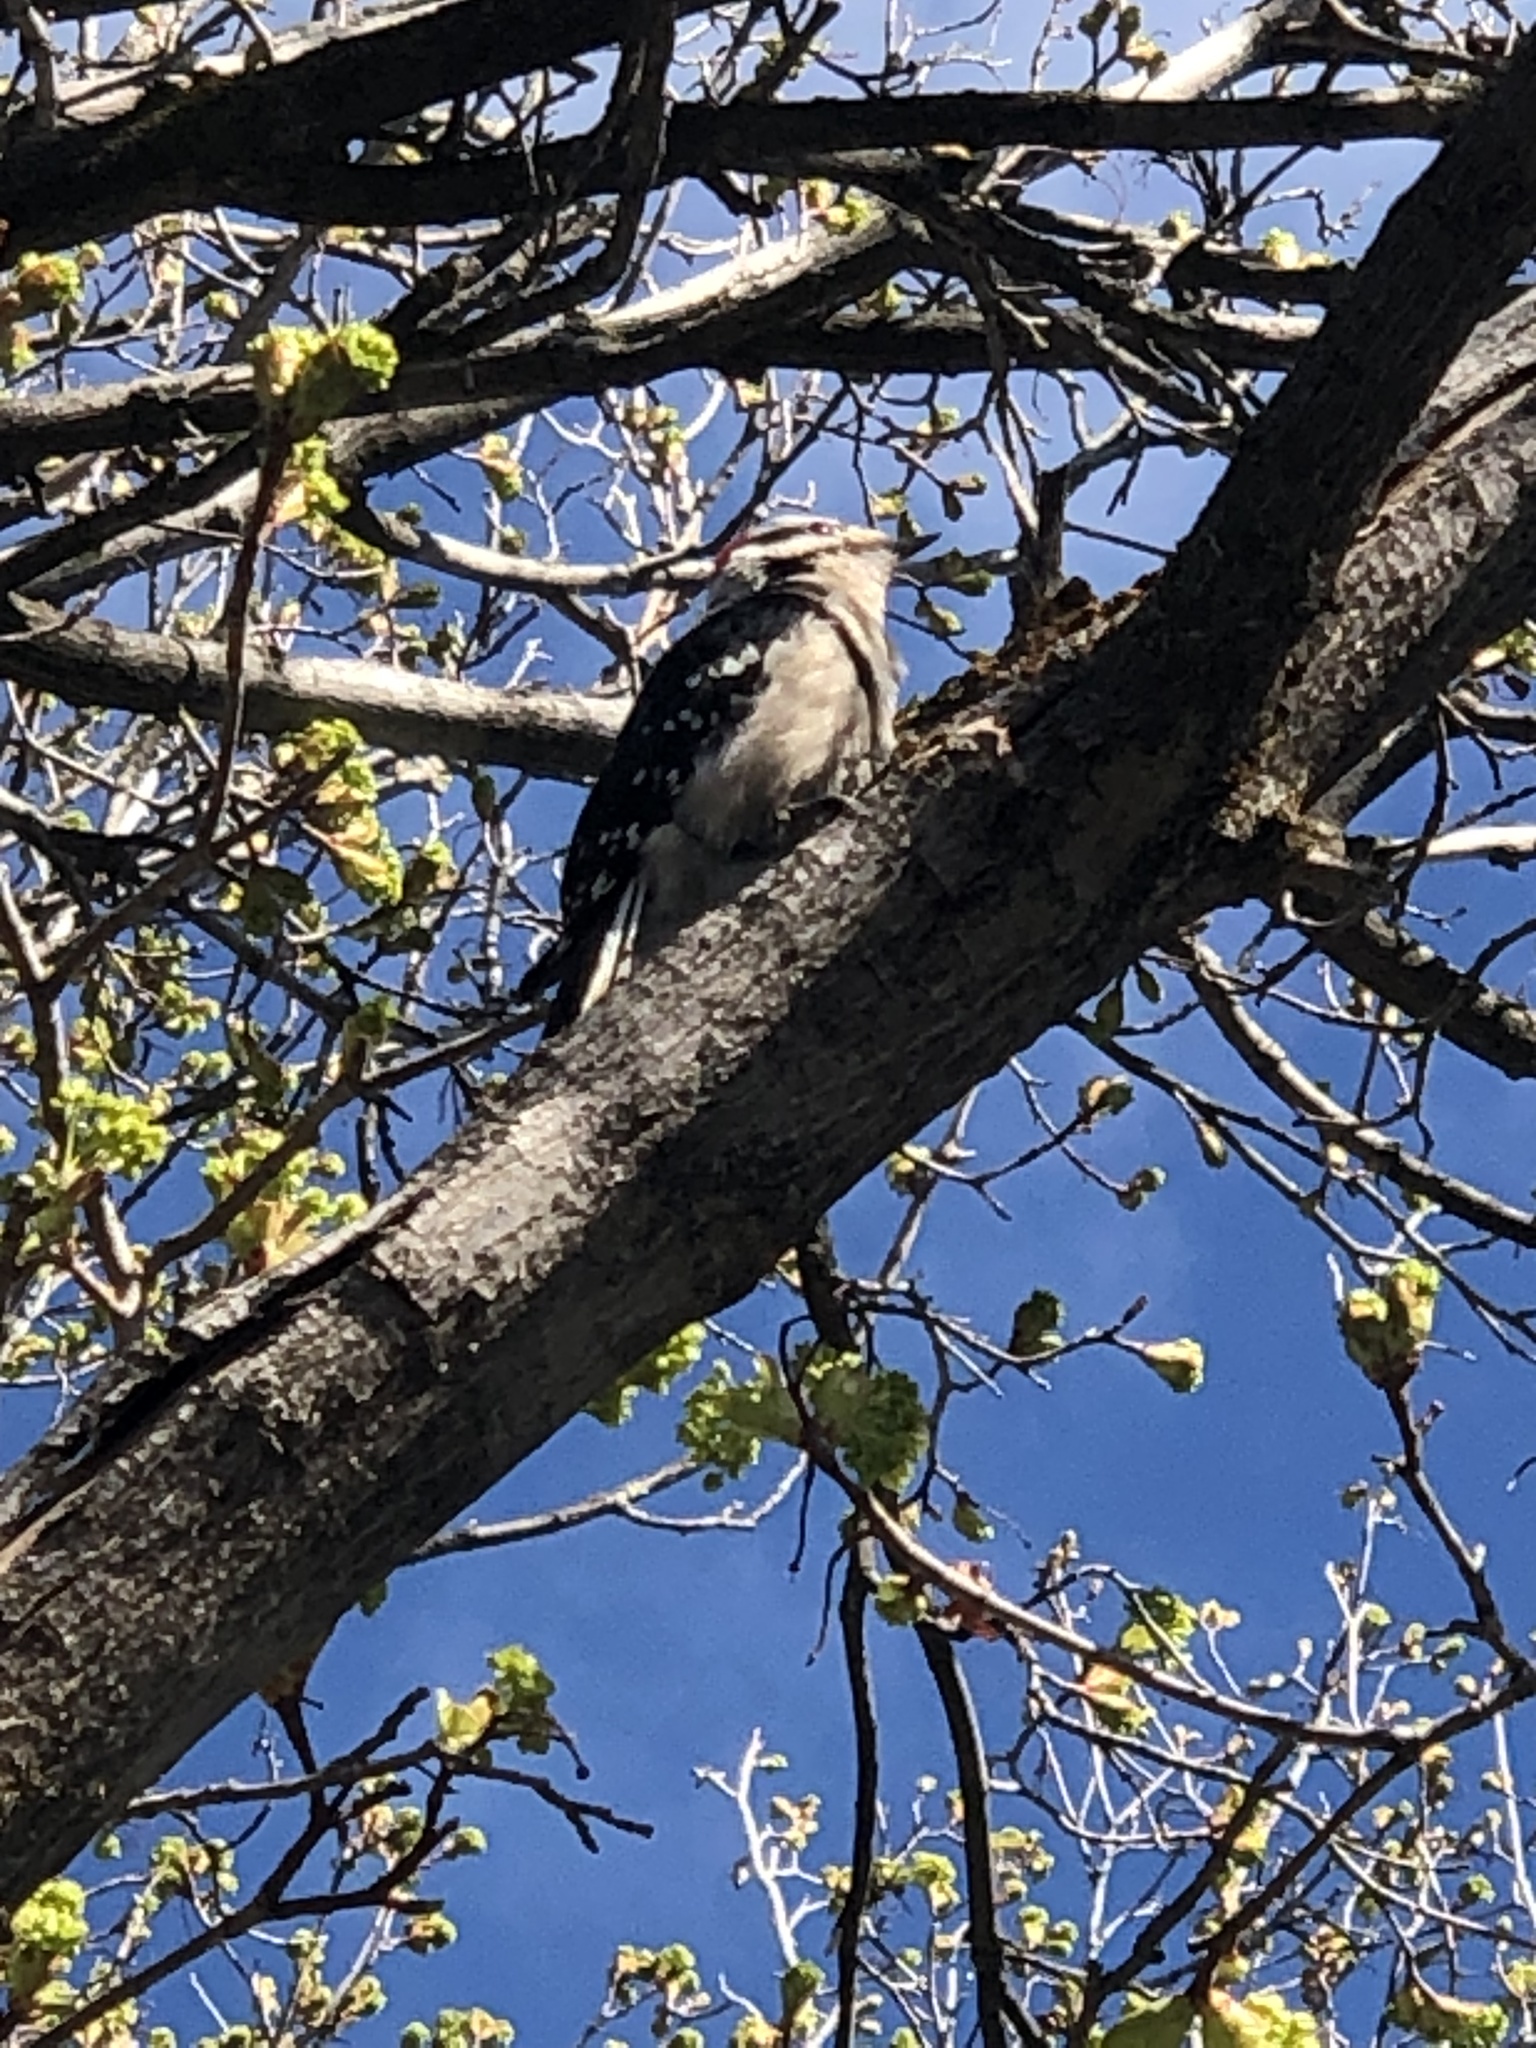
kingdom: Animalia
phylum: Chordata
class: Aves
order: Piciformes
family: Picidae
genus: Dryobates
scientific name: Dryobates pubescens
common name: Downy woodpecker
